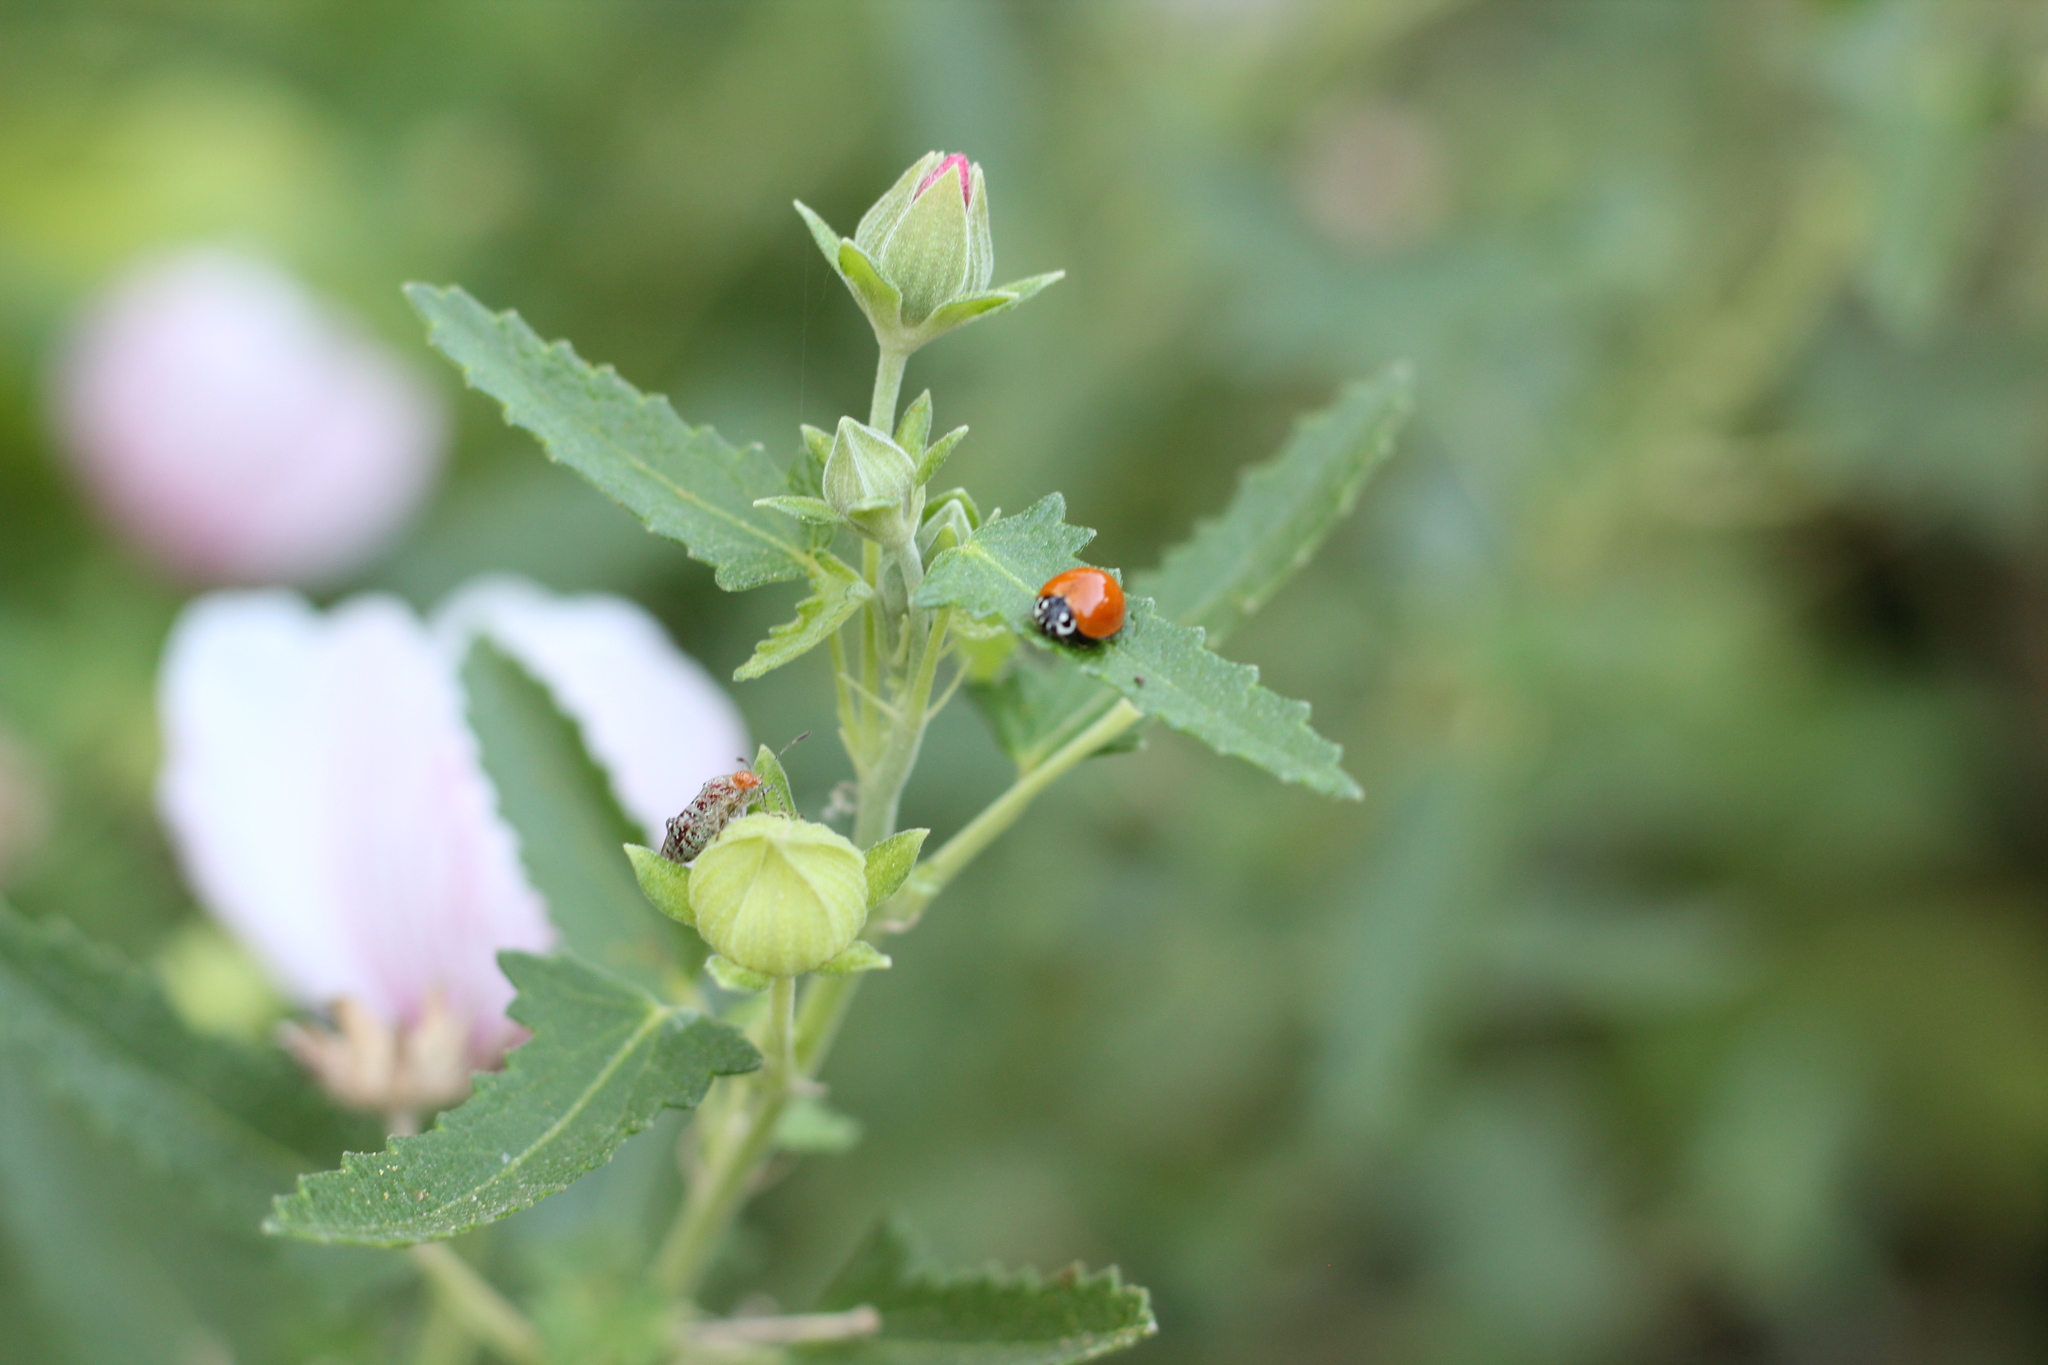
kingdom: Animalia
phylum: Arthropoda
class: Insecta
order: Coleoptera
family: Coccinellidae
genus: Cycloneda
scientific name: Cycloneda sanguinea
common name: Ladybird beetle
